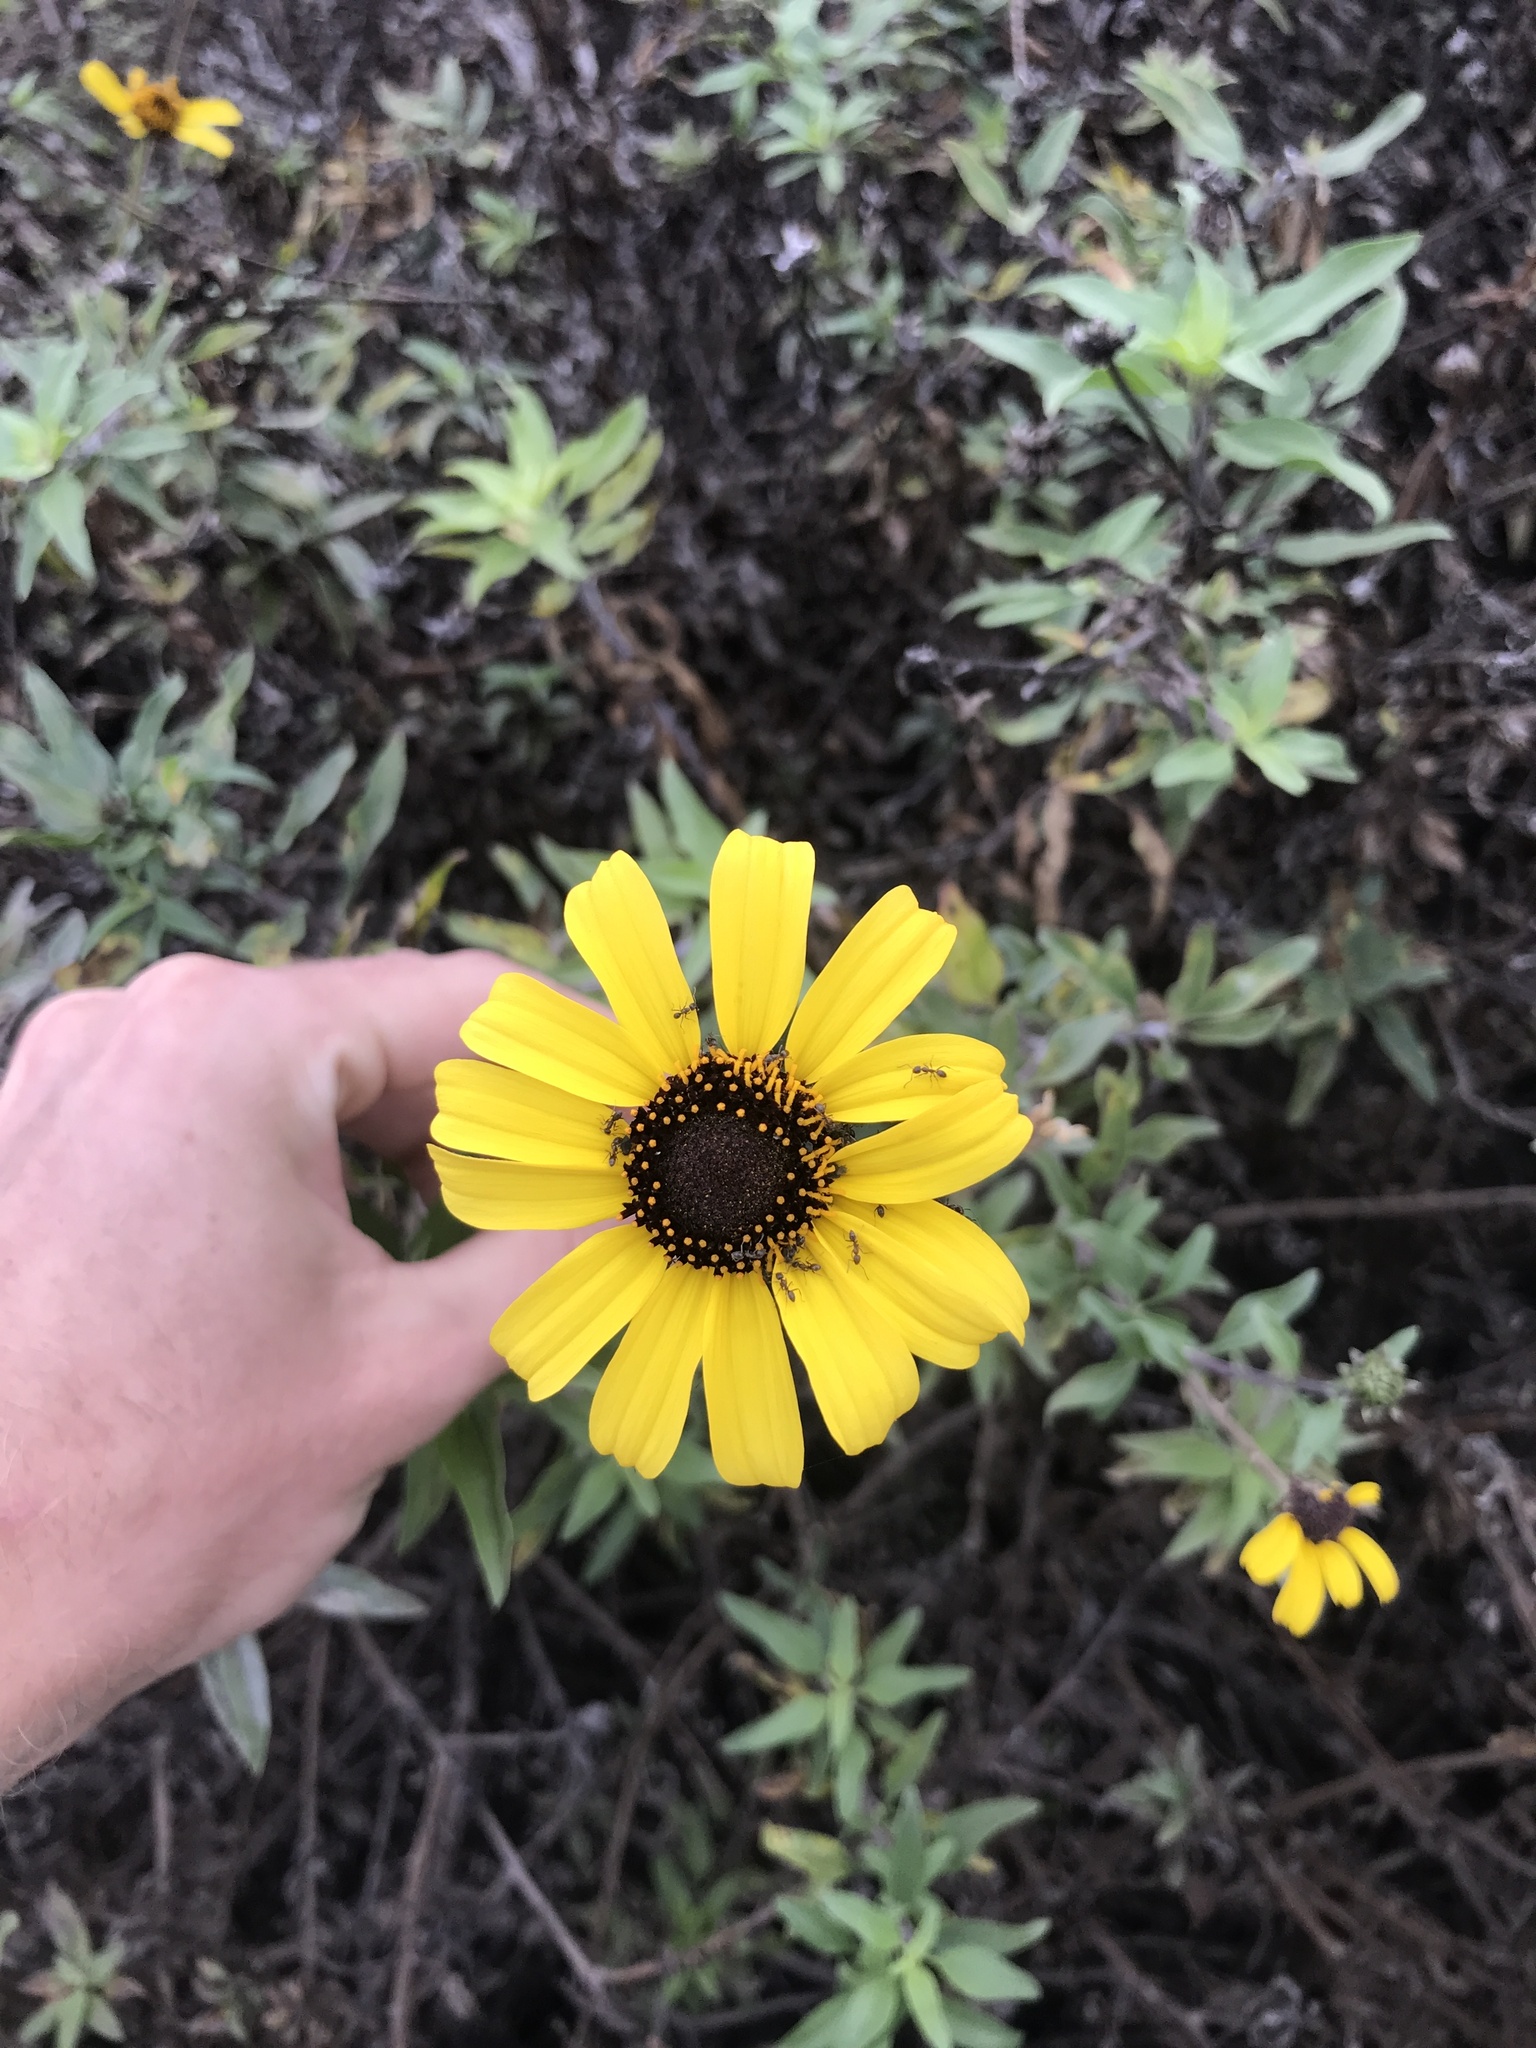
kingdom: Plantae
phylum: Tracheophyta
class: Magnoliopsida
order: Asterales
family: Asteraceae
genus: Encelia
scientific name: Encelia californica
